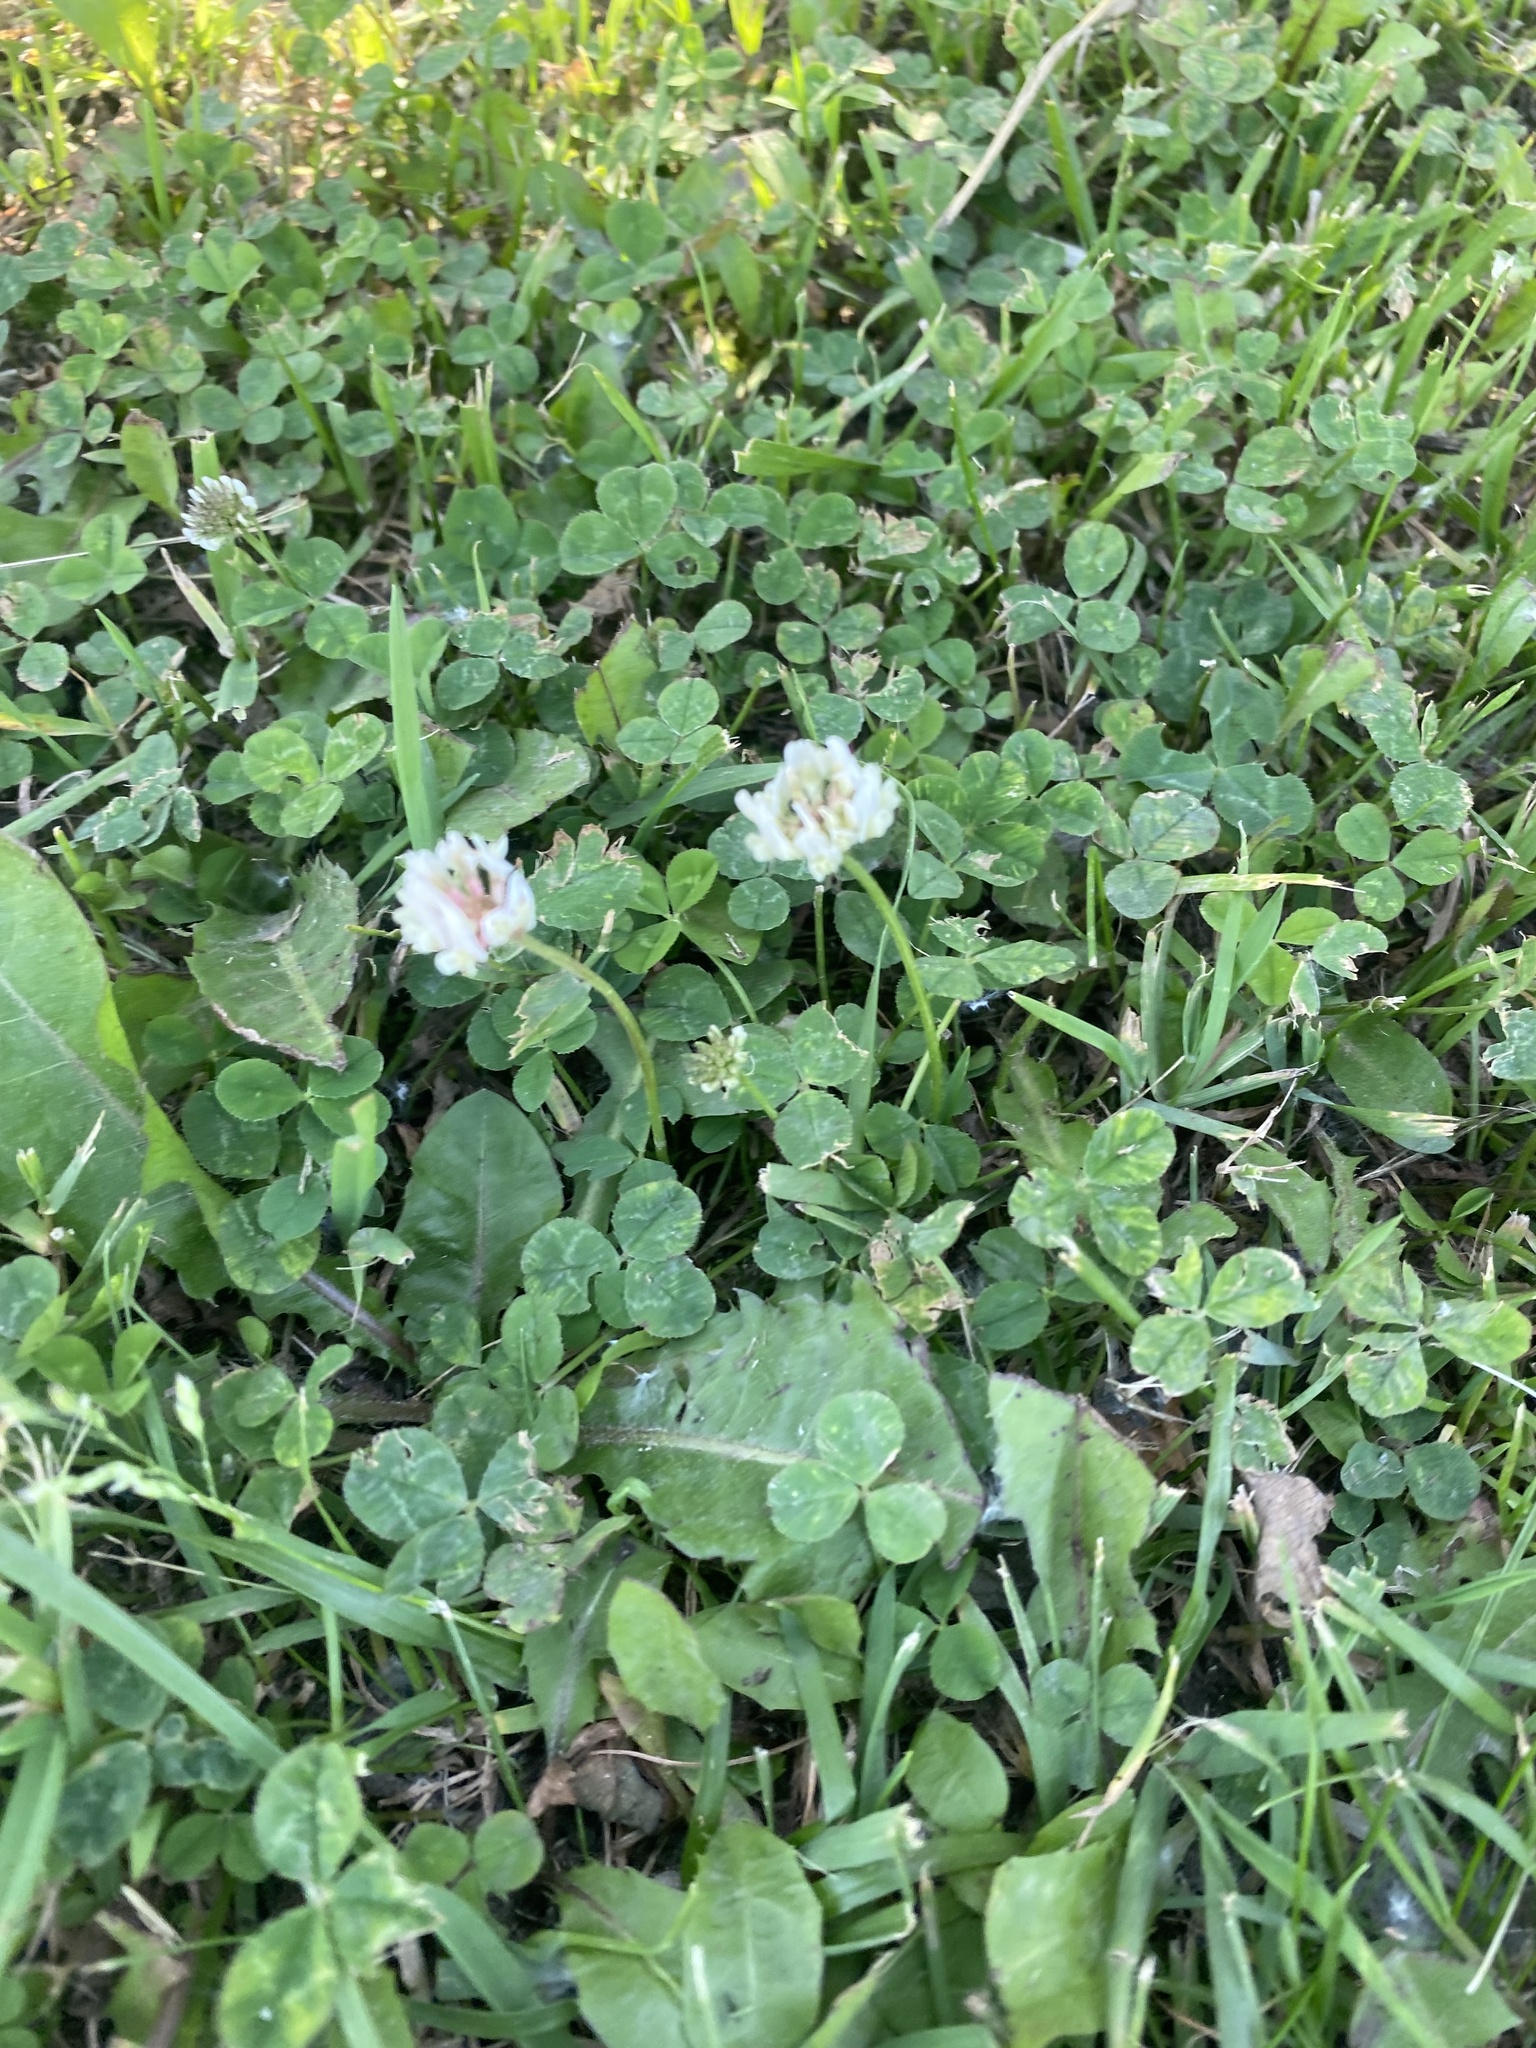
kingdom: Plantae
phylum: Tracheophyta
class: Magnoliopsida
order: Fabales
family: Fabaceae
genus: Trifolium
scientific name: Trifolium repens
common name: White clover
